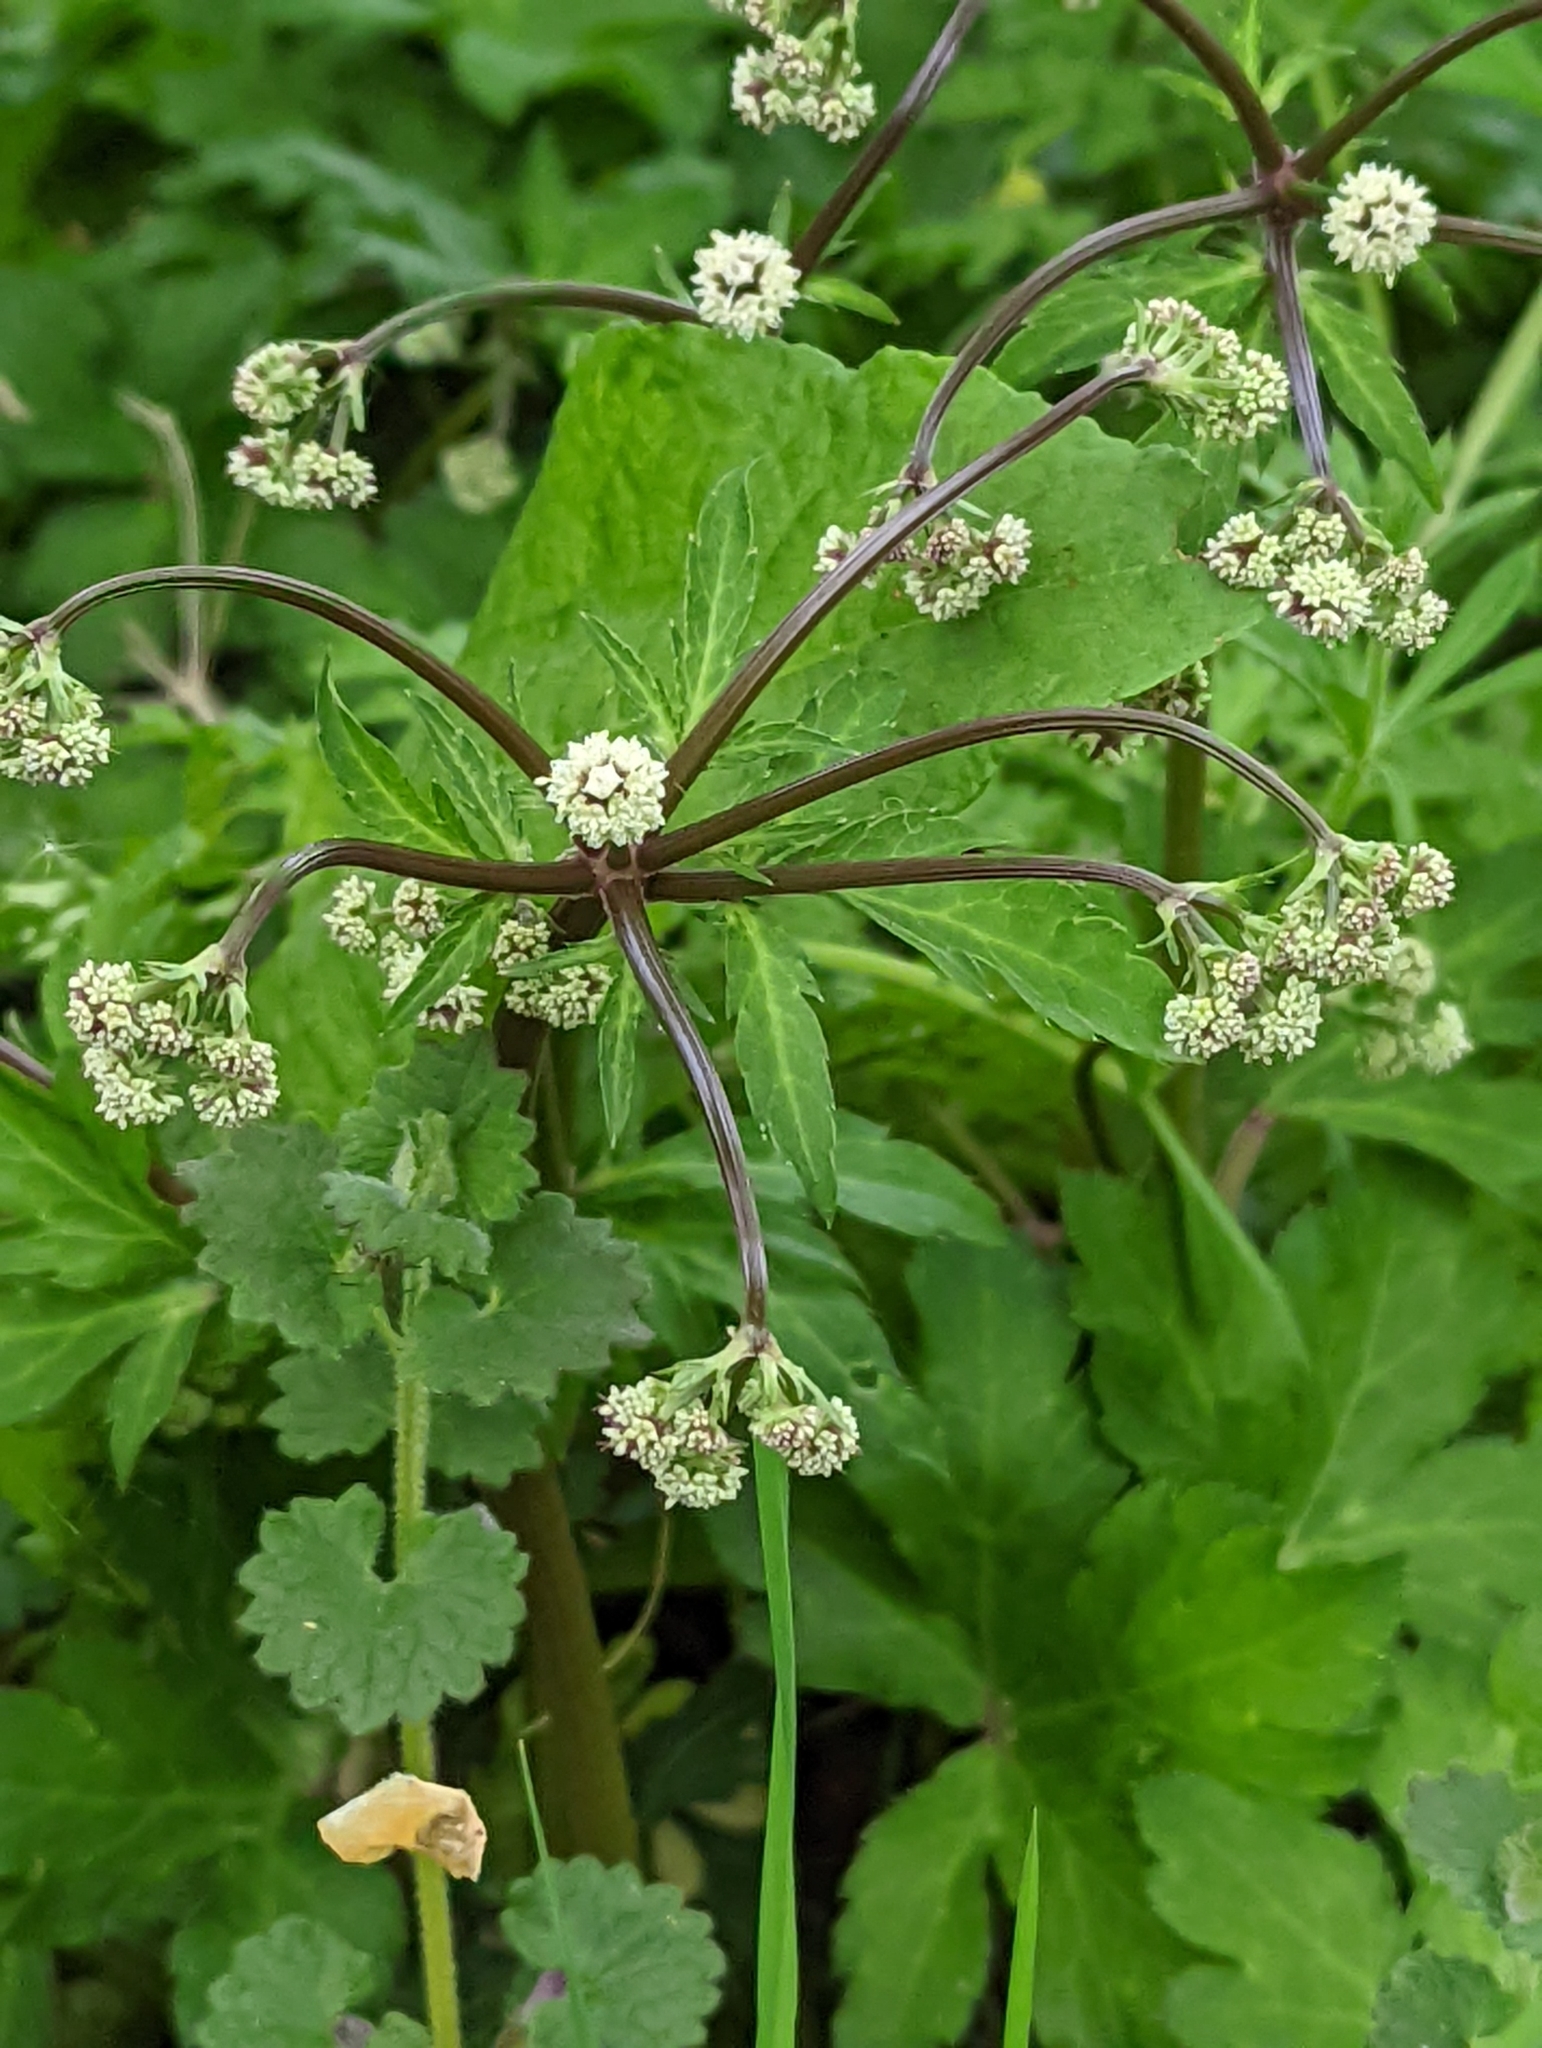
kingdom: Plantae
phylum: Tracheophyta
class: Magnoliopsida
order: Apiales
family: Apiaceae
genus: Sanicula
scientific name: Sanicula europaea
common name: Sanicle
